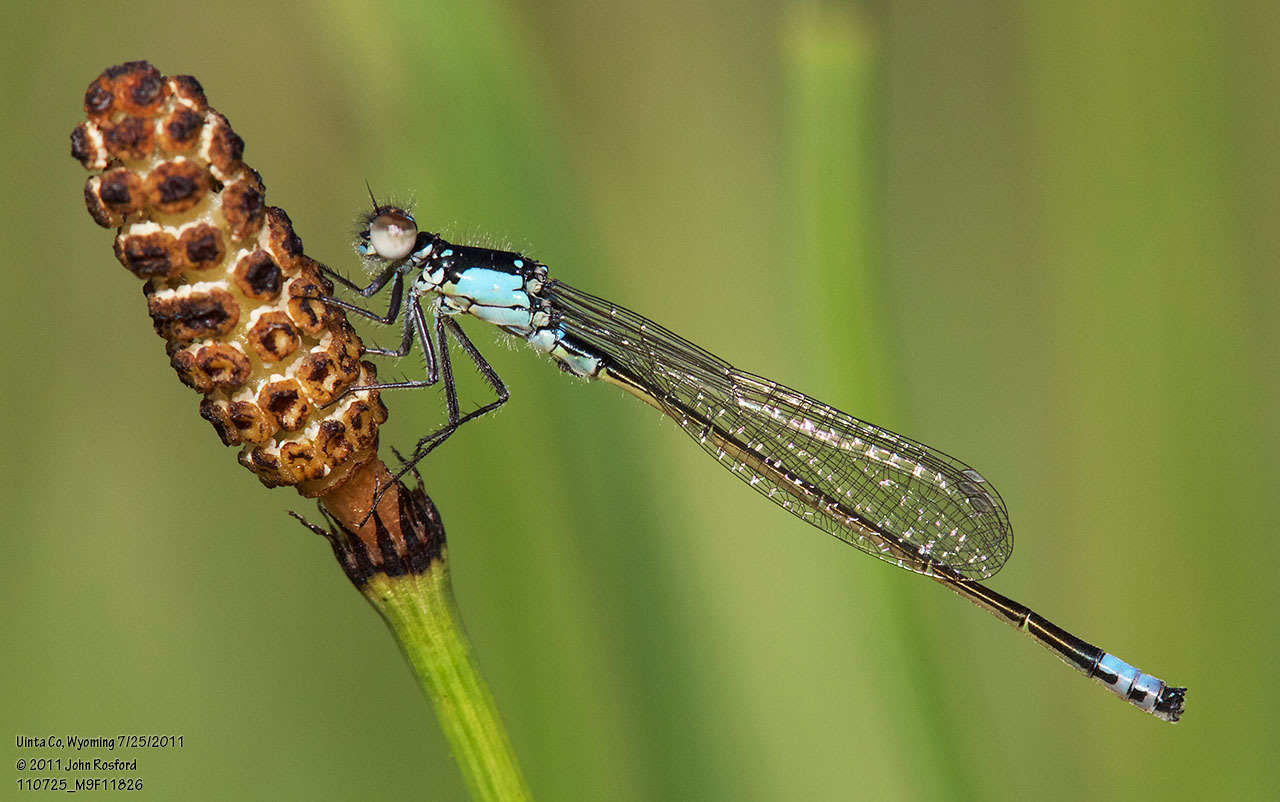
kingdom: Animalia
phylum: Arthropoda
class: Insecta
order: Odonata
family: Coenagrionidae
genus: Ischnura
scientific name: Ischnura cervula
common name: Pacific forktail
